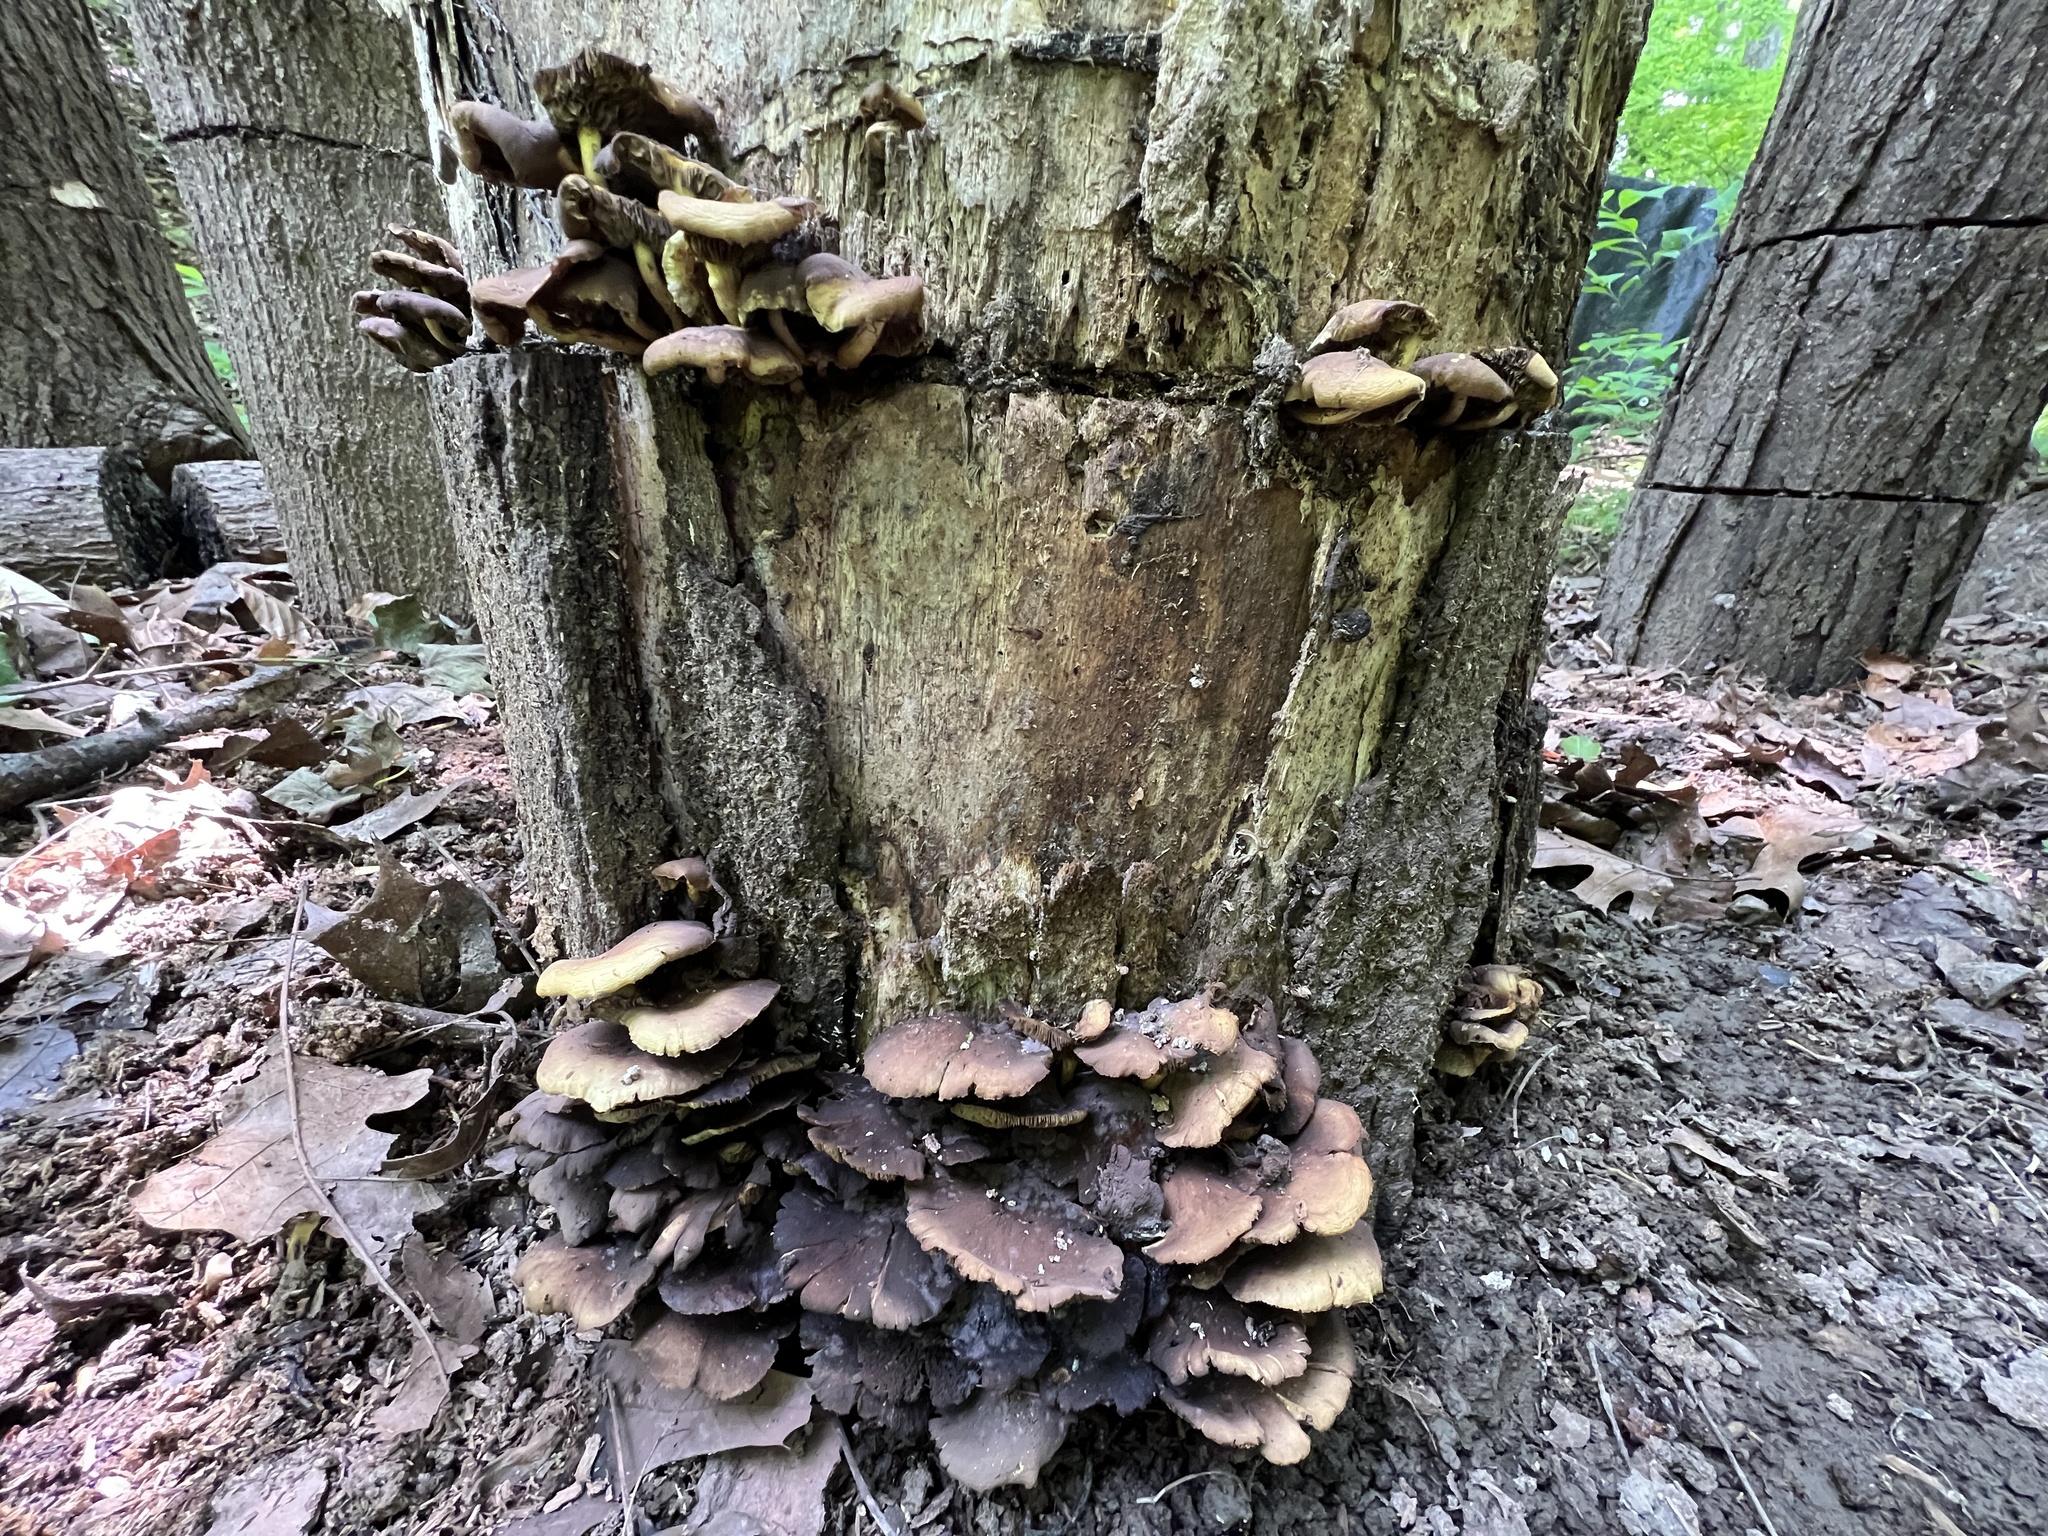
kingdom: Fungi
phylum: Basidiomycota
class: Agaricomycetes
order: Agaricales
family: Strophariaceae
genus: Hypholoma
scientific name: Hypholoma fasciculare
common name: Sulphur tuft
